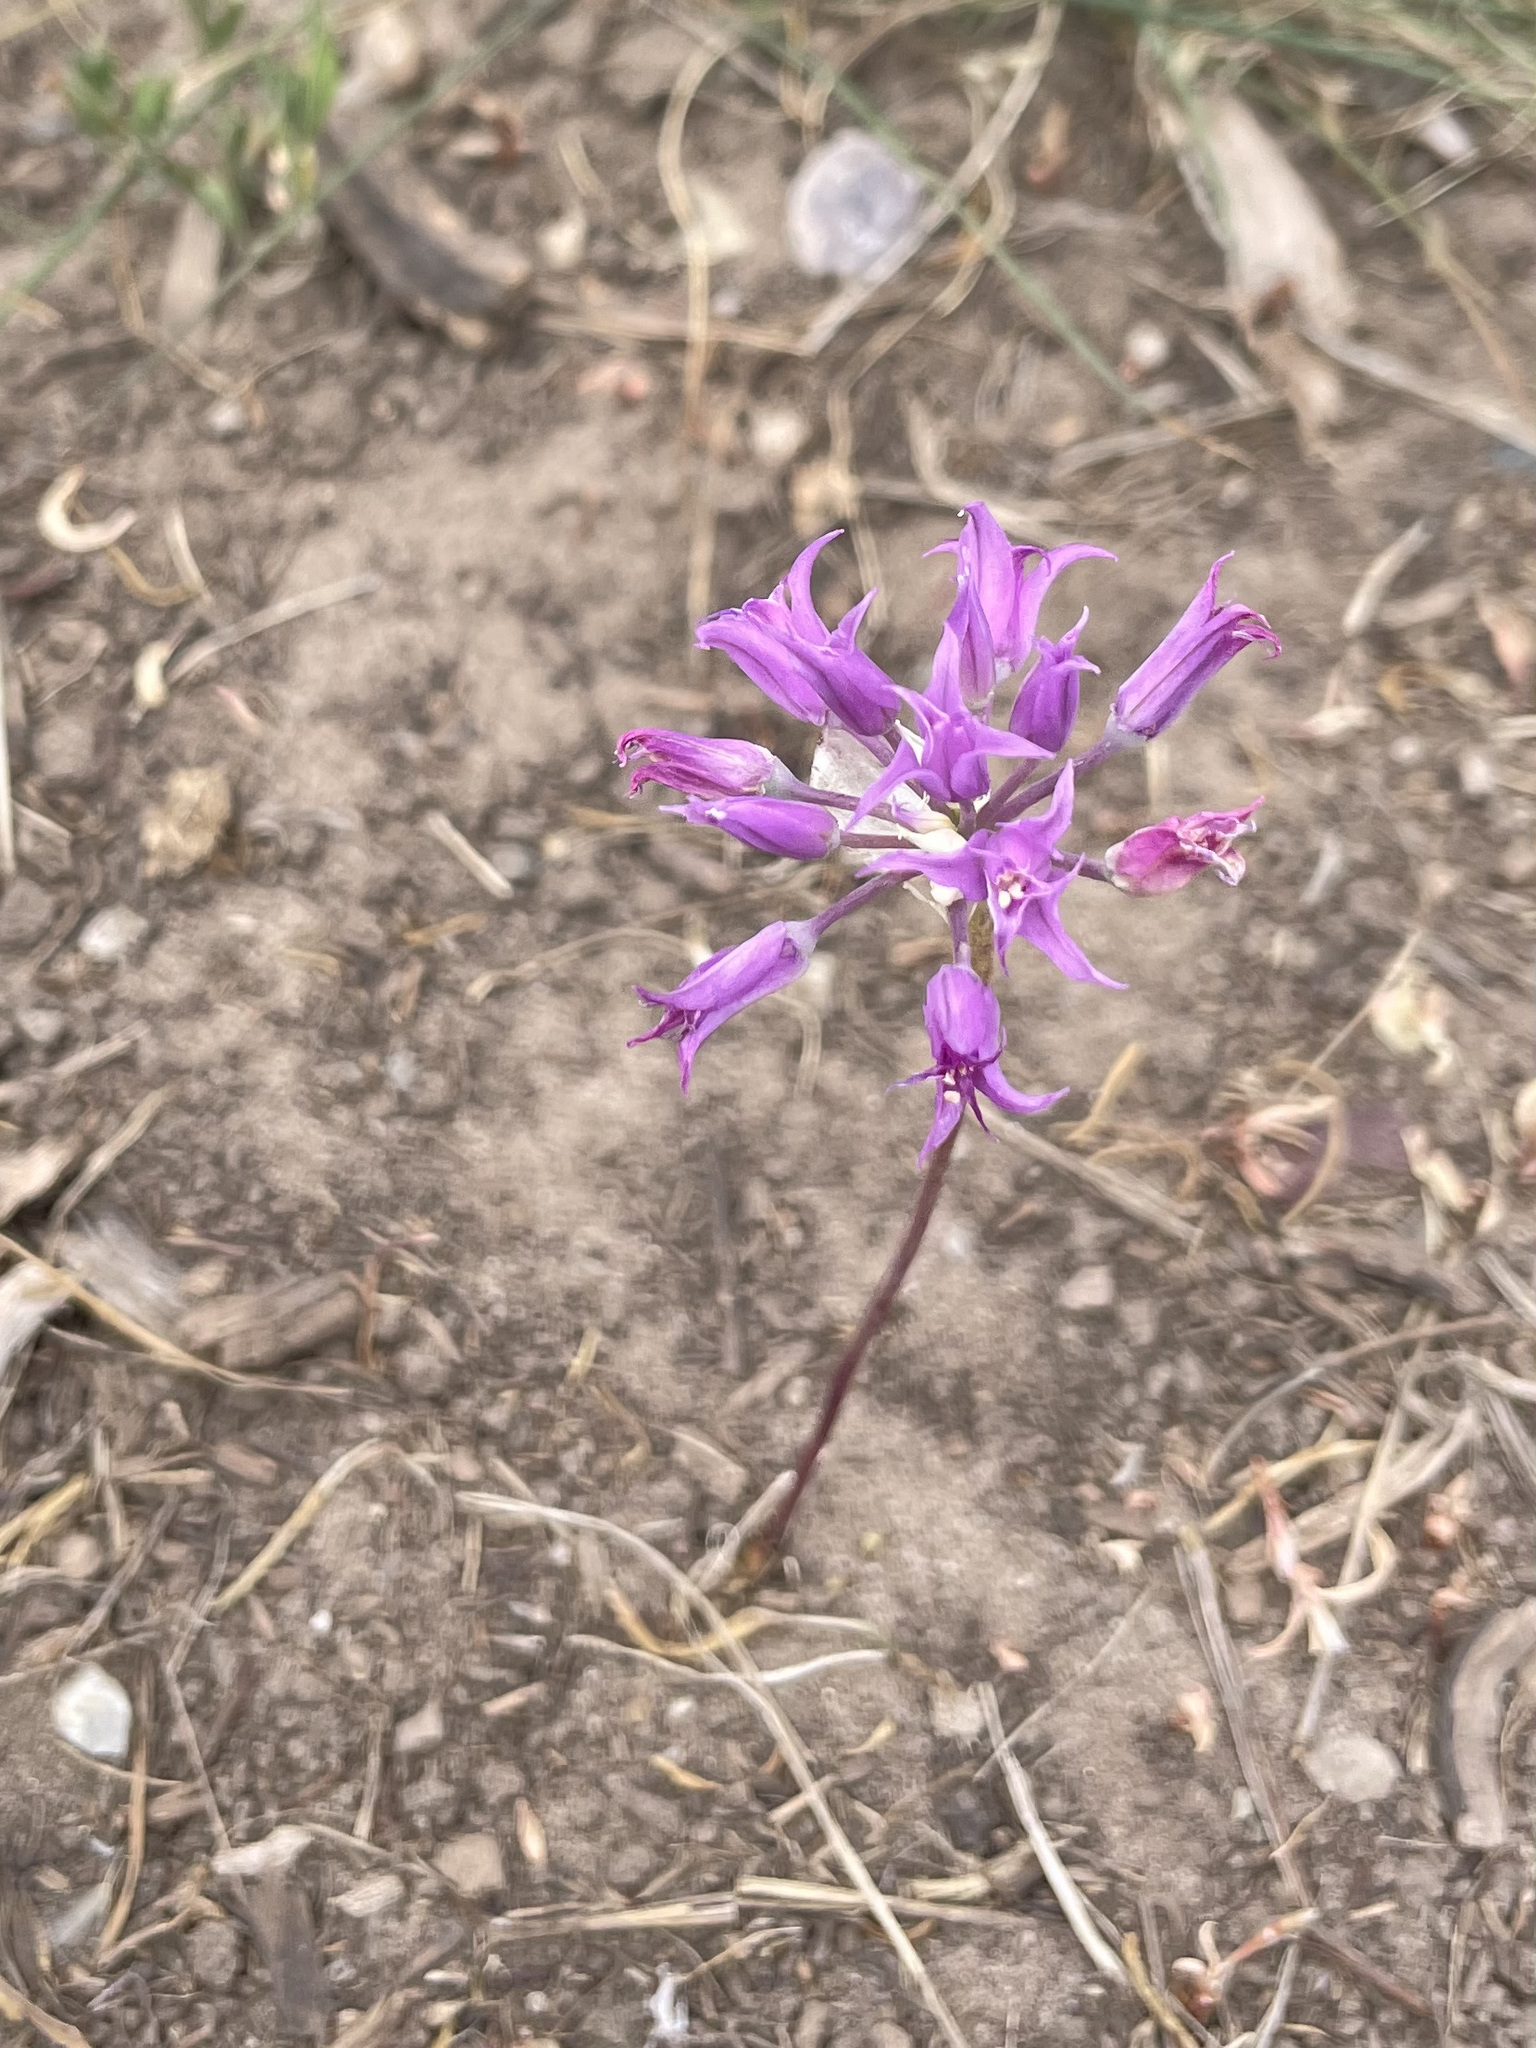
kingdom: Plantae
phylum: Tracheophyta
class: Liliopsida
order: Asparagales
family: Amaryllidaceae
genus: Allium
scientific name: Allium acuminatum
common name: Hooker's onion
